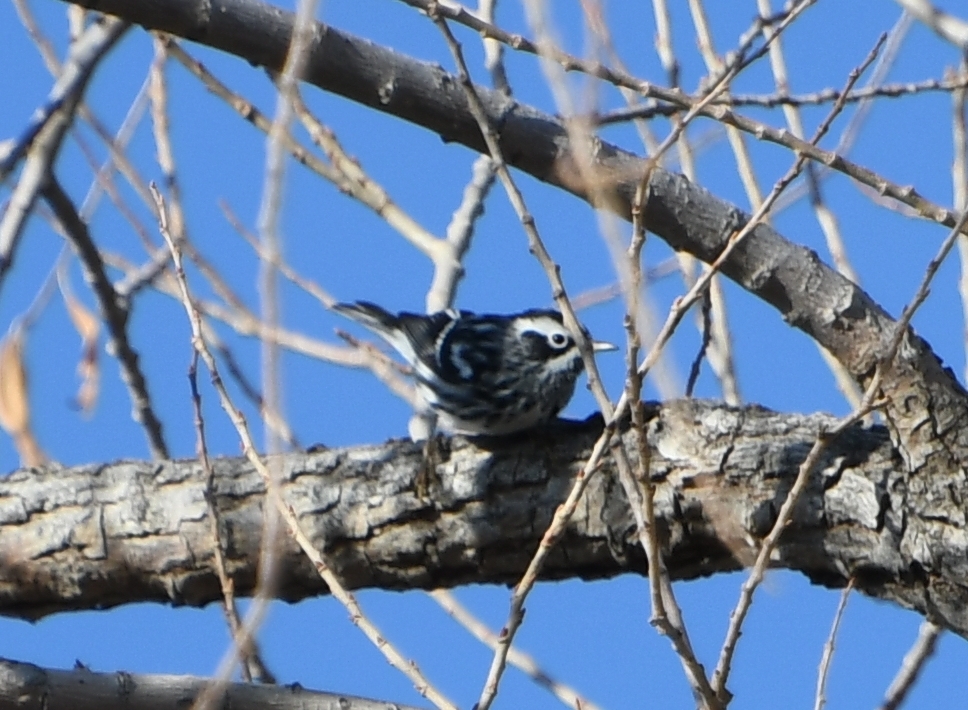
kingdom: Animalia
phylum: Chordata
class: Aves
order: Passeriformes
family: Parulidae
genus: Mniotilta
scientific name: Mniotilta varia
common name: Black-and-white warbler
